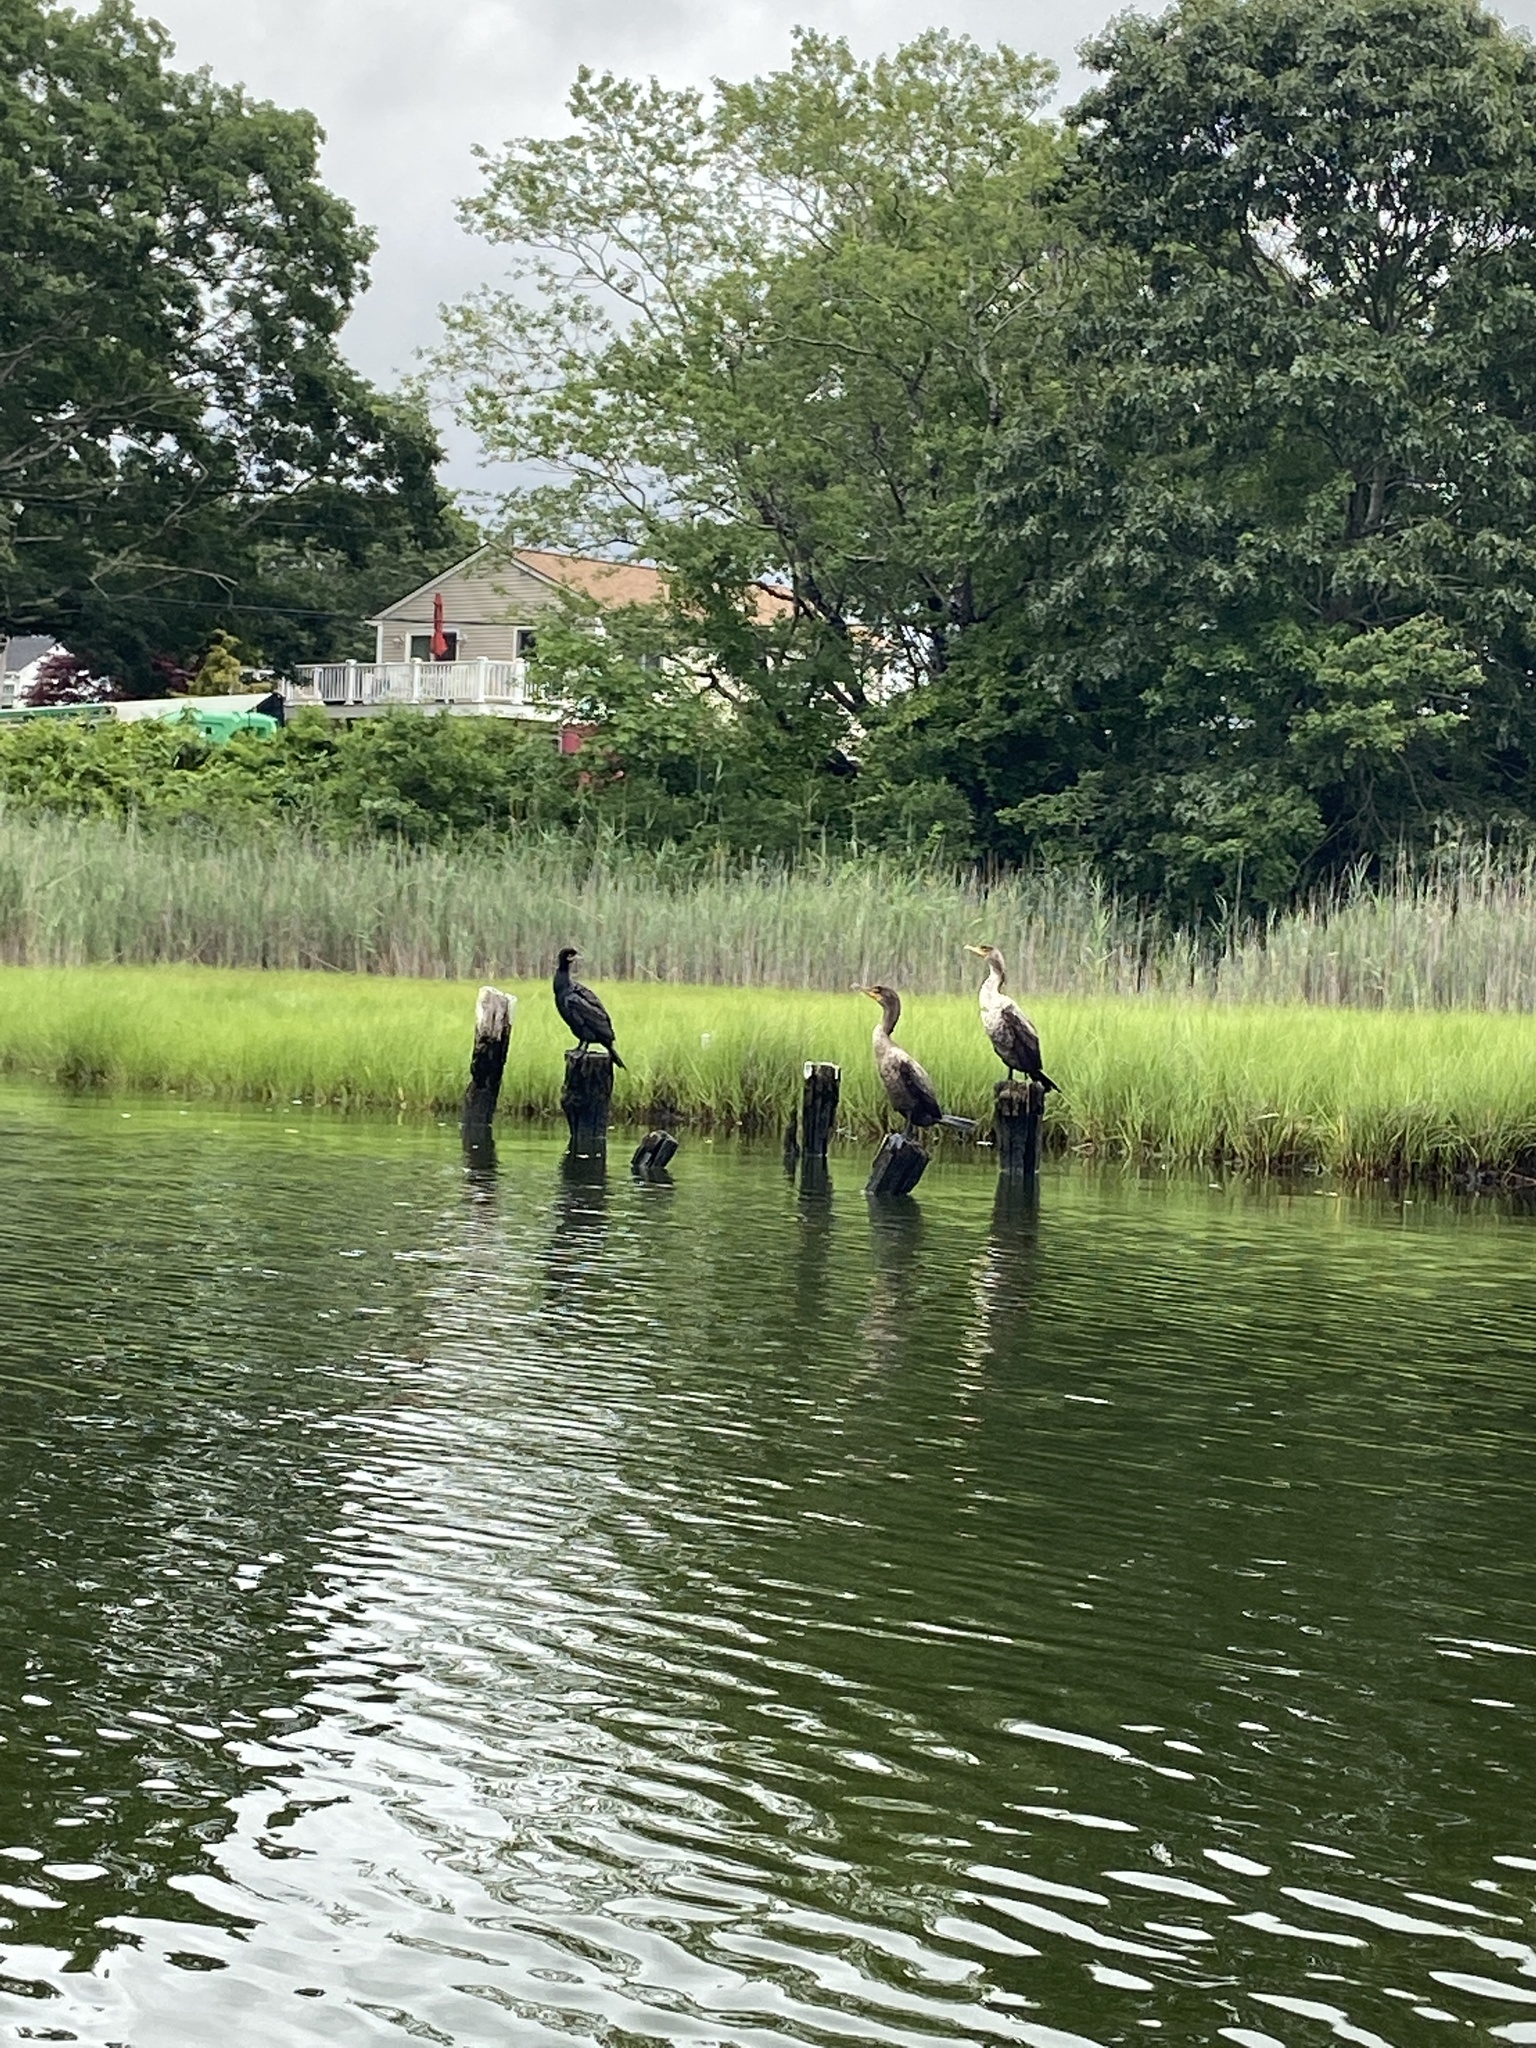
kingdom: Animalia
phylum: Chordata
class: Aves
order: Suliformes
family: Phalacrocoracidae
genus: Phalacrocorax
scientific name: Phalacrocorax auritus
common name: Double-crested cormorant
